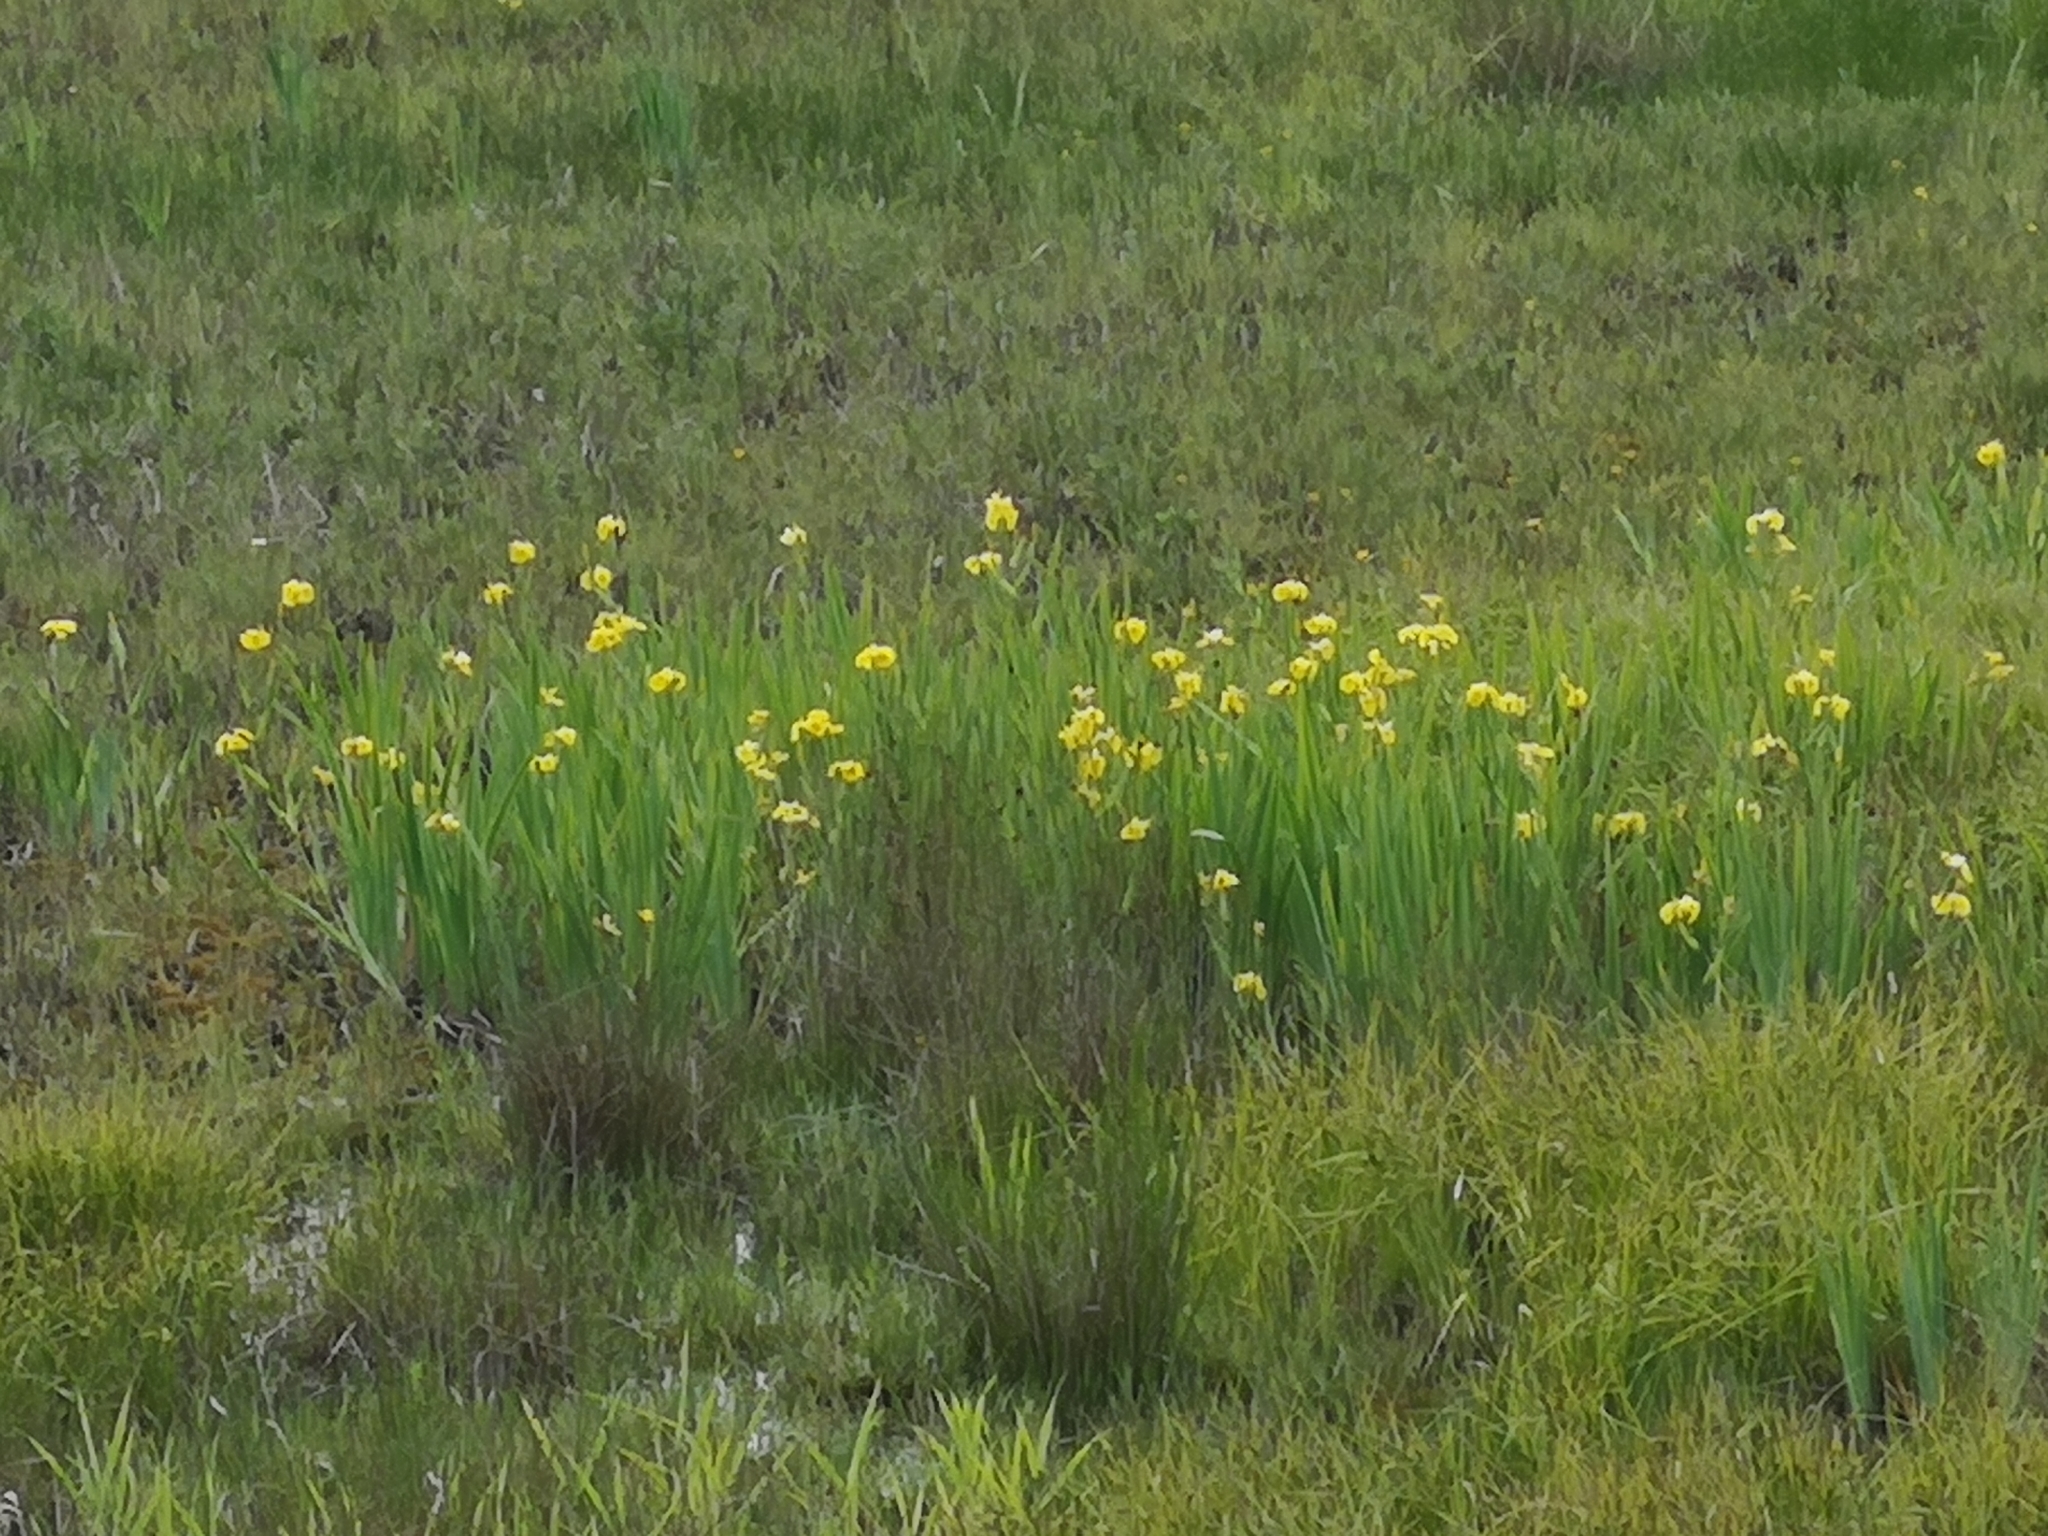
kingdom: Plantae
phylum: Tracheophyta
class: Liliopsida
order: Asparagales
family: Iridaceae
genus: Iris
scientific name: Iris pseudacorus
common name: Yellow flag
